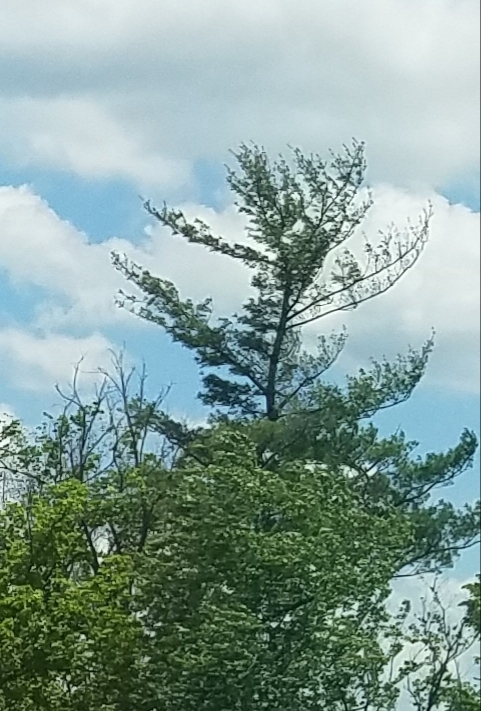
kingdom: Plantae
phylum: Tracheophyta
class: Pinopsida
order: Pinales
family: Pinaceae
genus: Pinus
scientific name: Pinus strobus
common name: Weymouth pine
